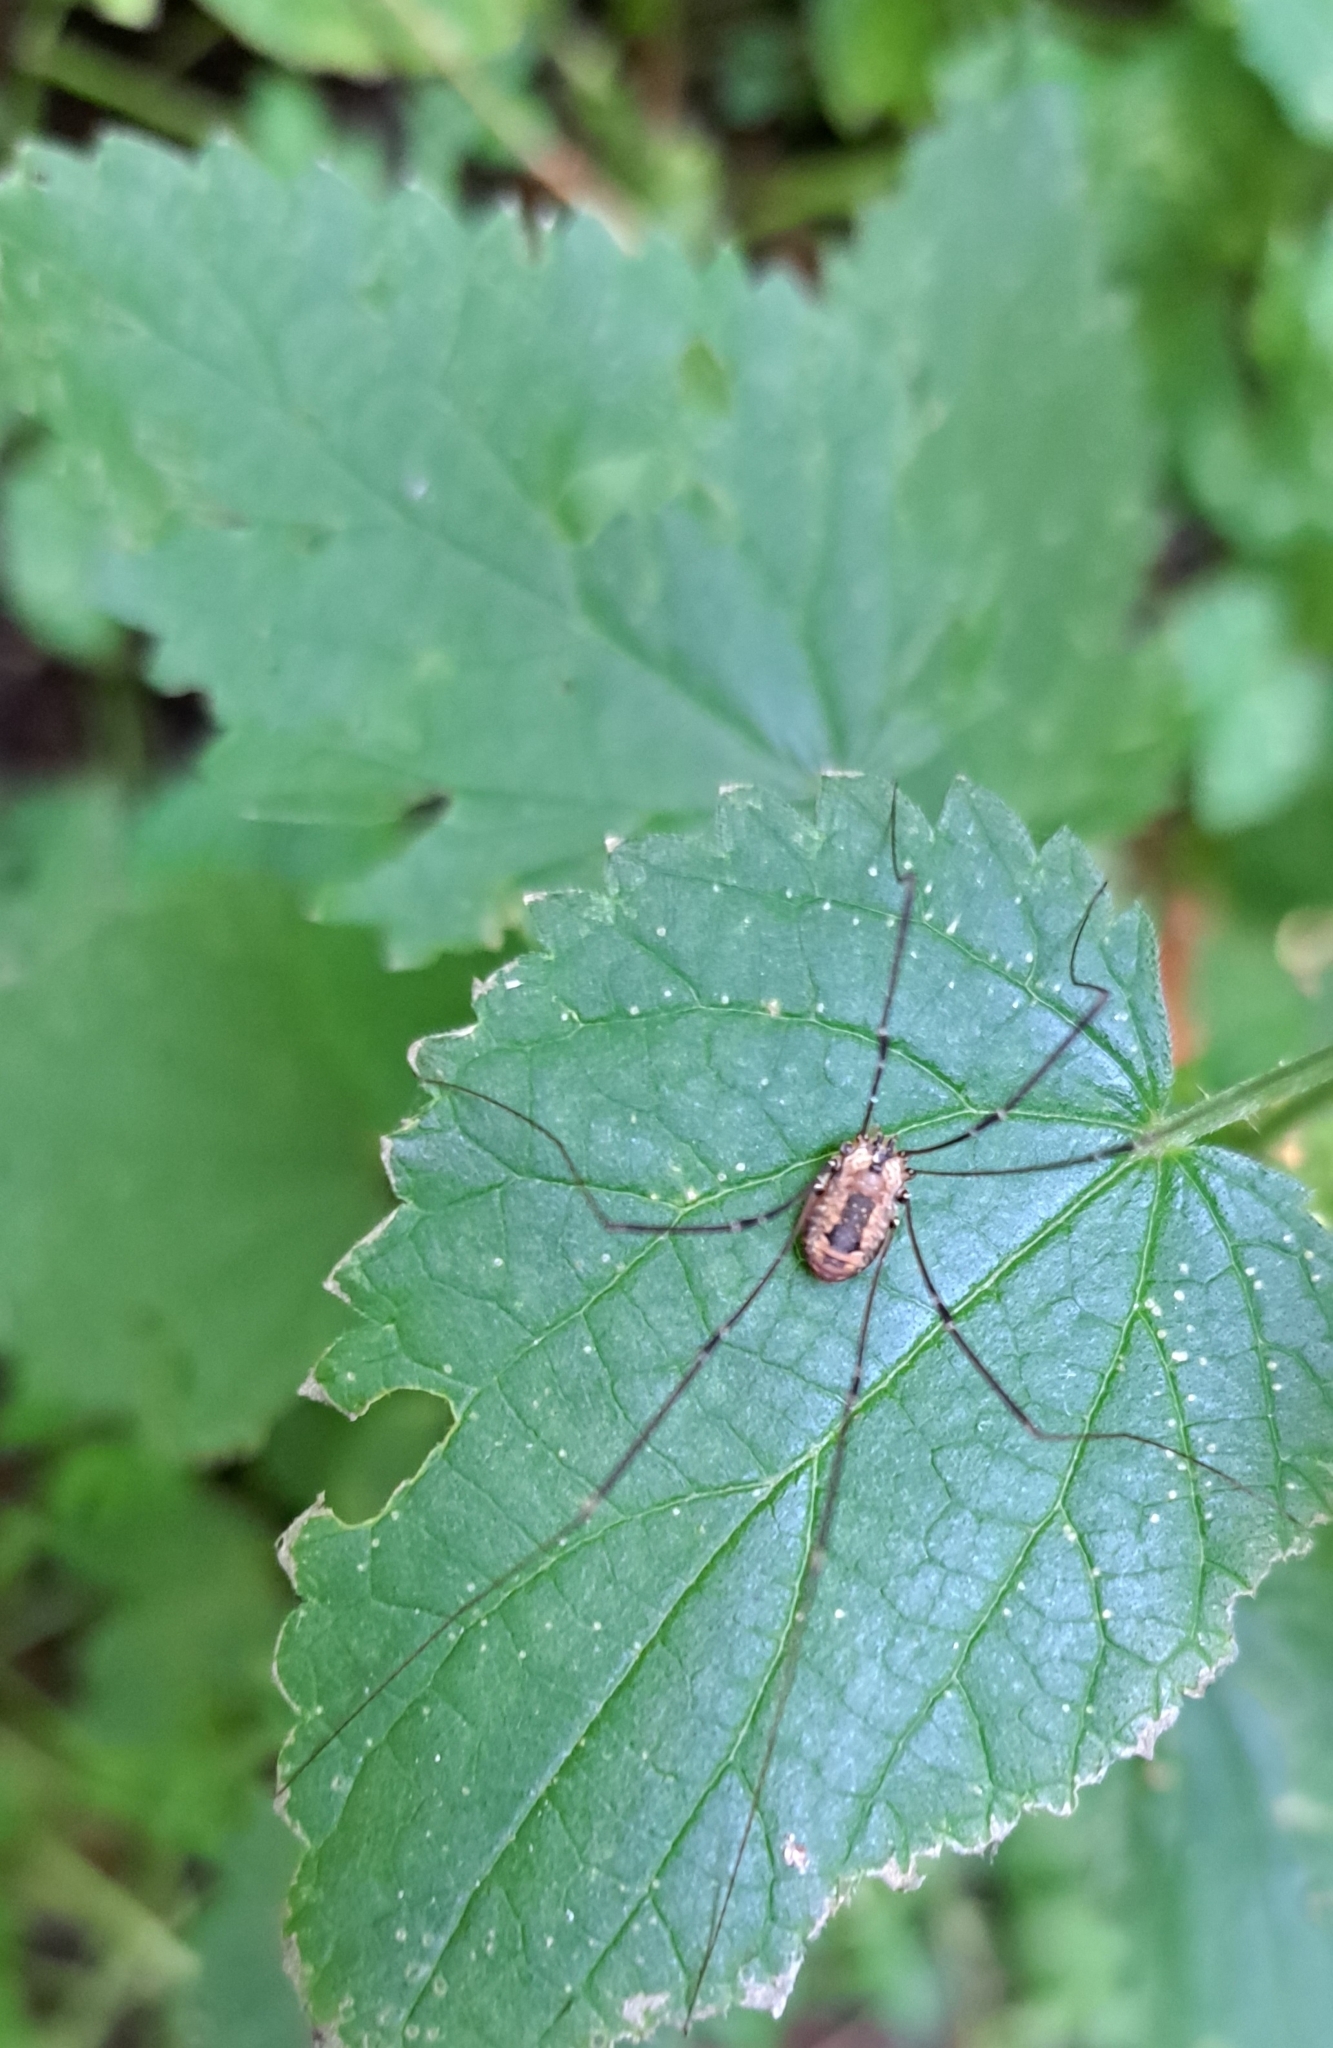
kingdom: Animalia
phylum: Arthropoda
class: Arachnida
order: Opiliones
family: Sclerosomatidae
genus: Leiobunum
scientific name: Leiobunum rotundum
